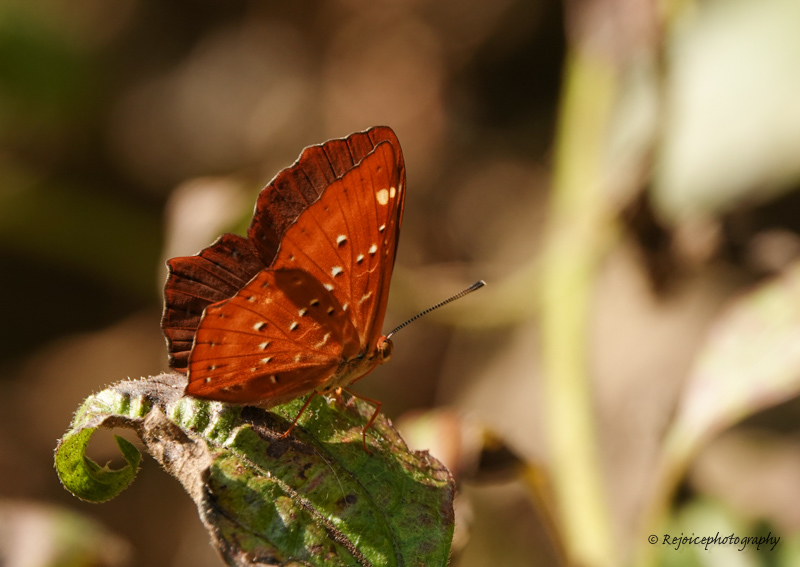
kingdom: Animalia
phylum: Arthropoda
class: Insecta
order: Lepidoptera
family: Riodinidae
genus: Zemeros
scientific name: Zemeros flegyas
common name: Punchinello
